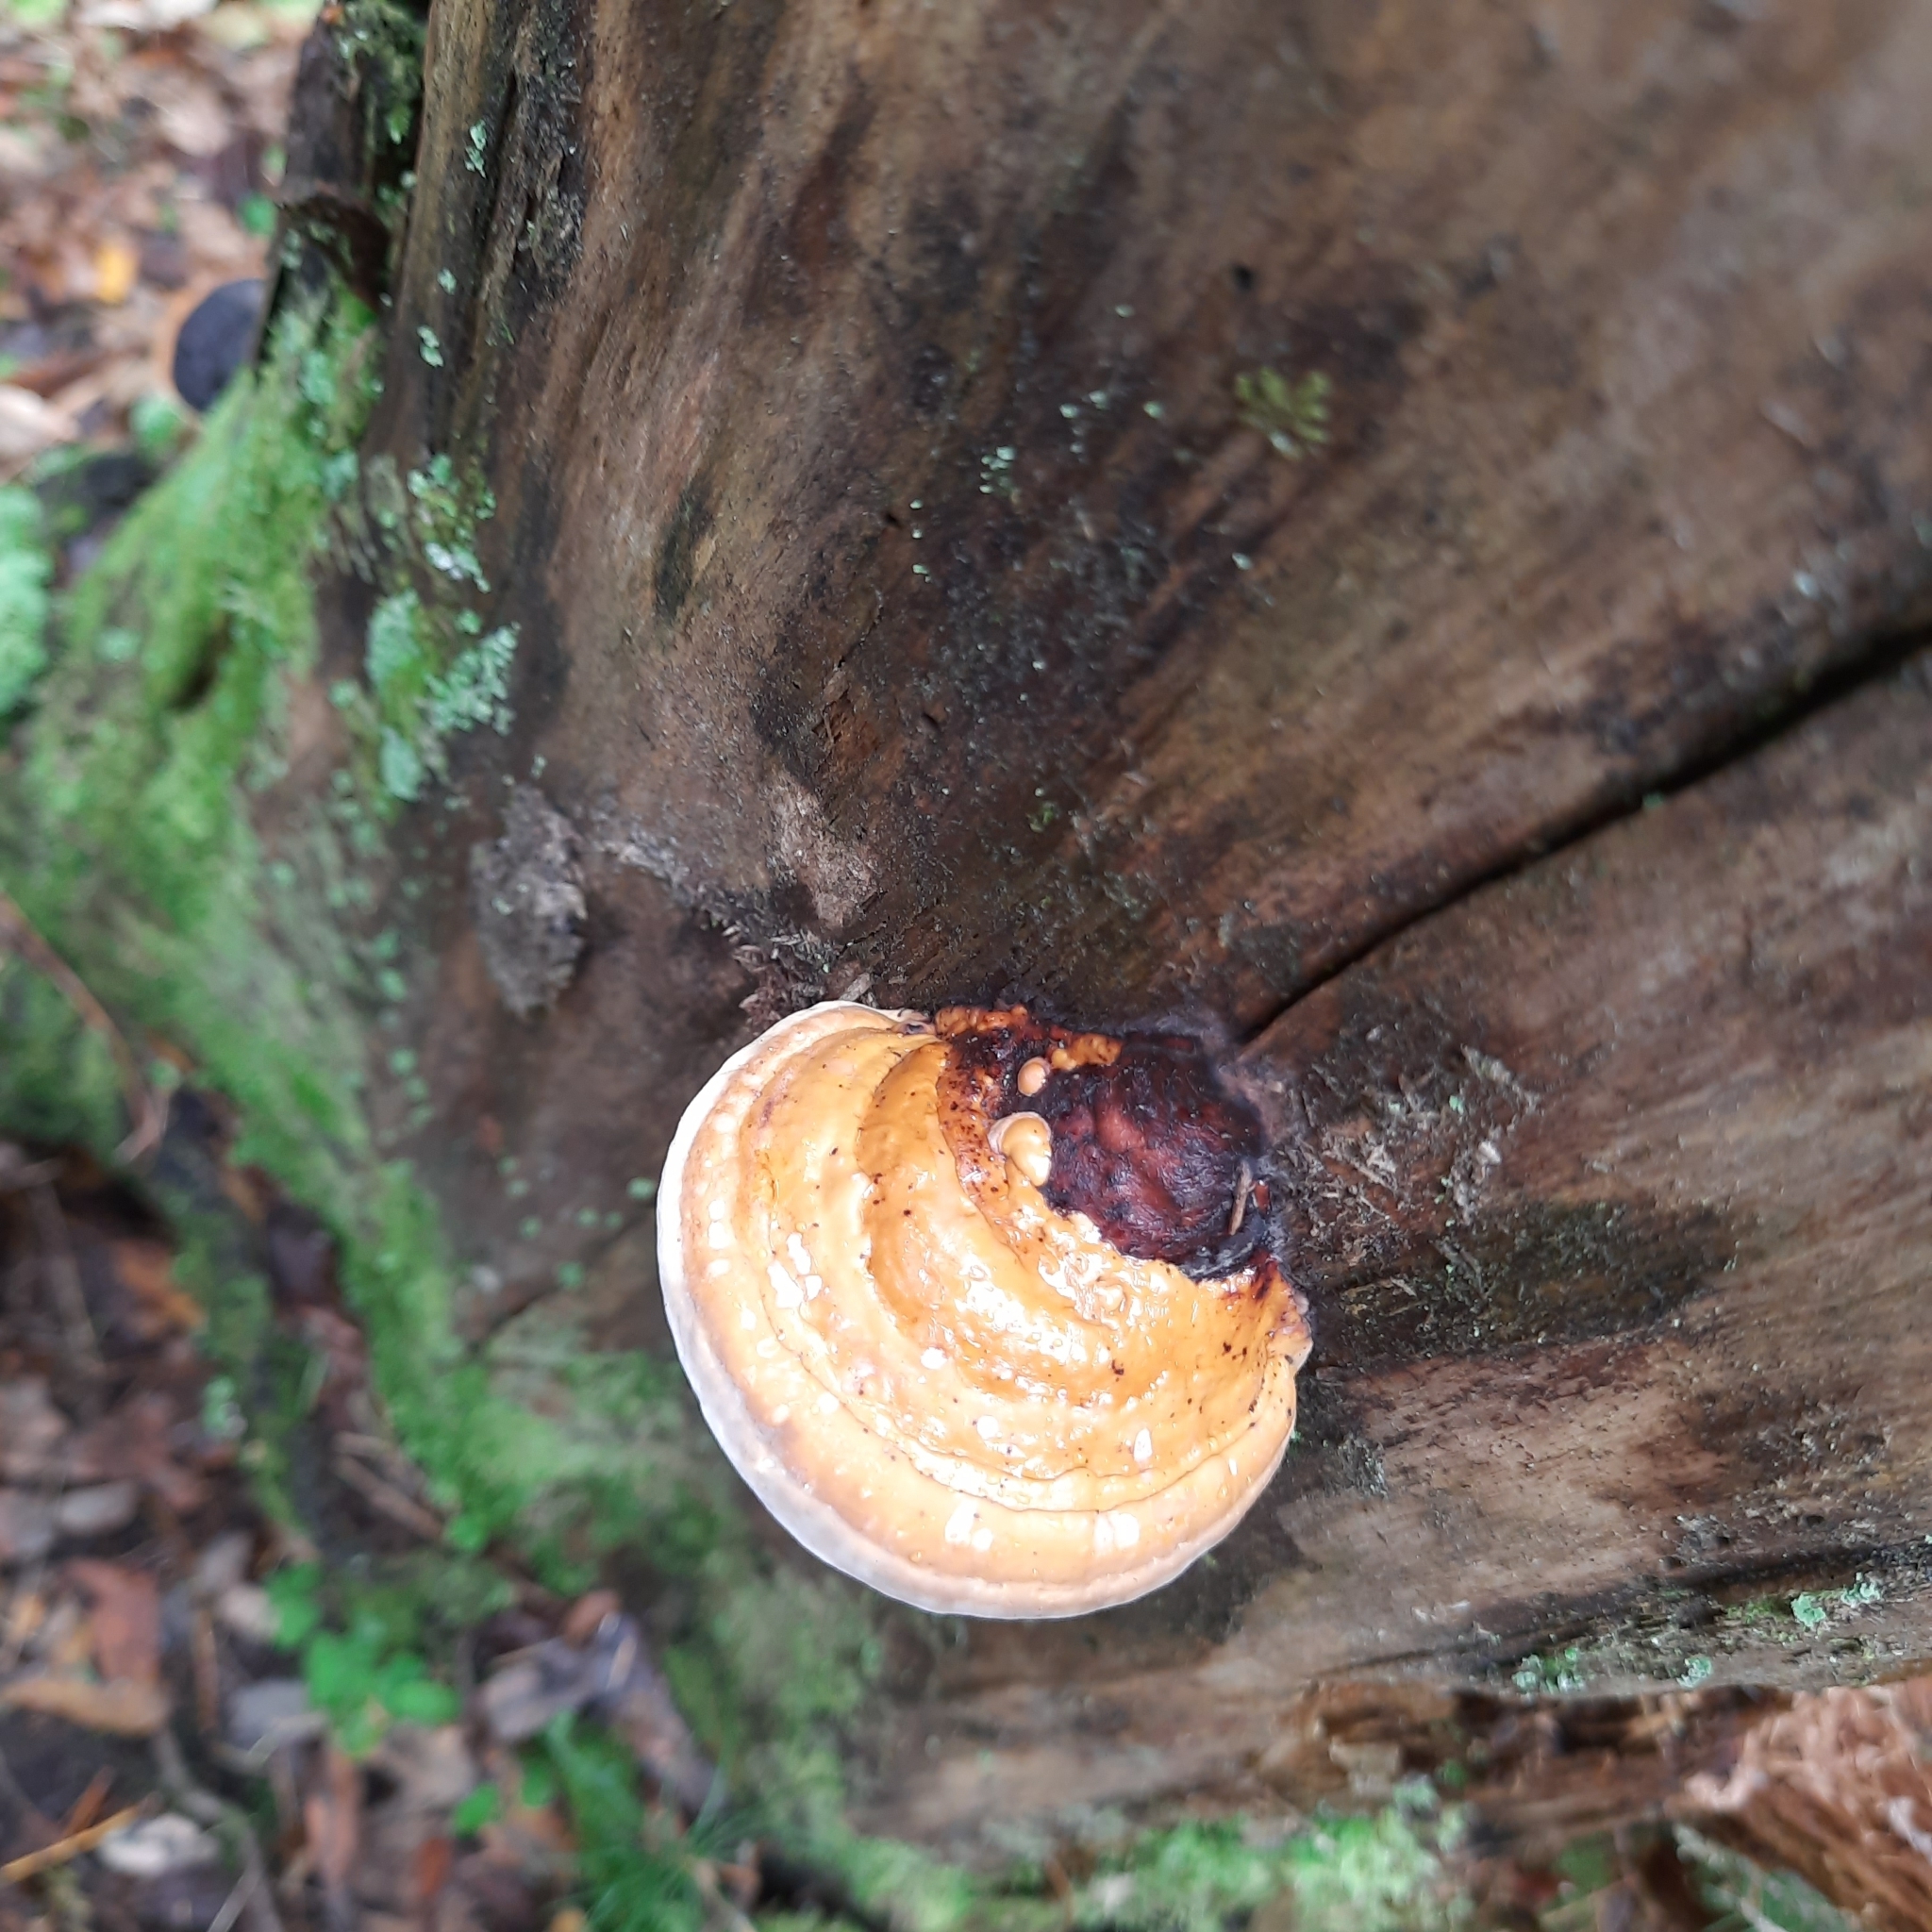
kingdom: Fungi
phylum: Basidiomycota
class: Agaricomycetes
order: Polyporales
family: Fomitopsidaceae
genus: Fomitopsis
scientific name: Fomitopsis pinicola
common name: Red-belted bracket
